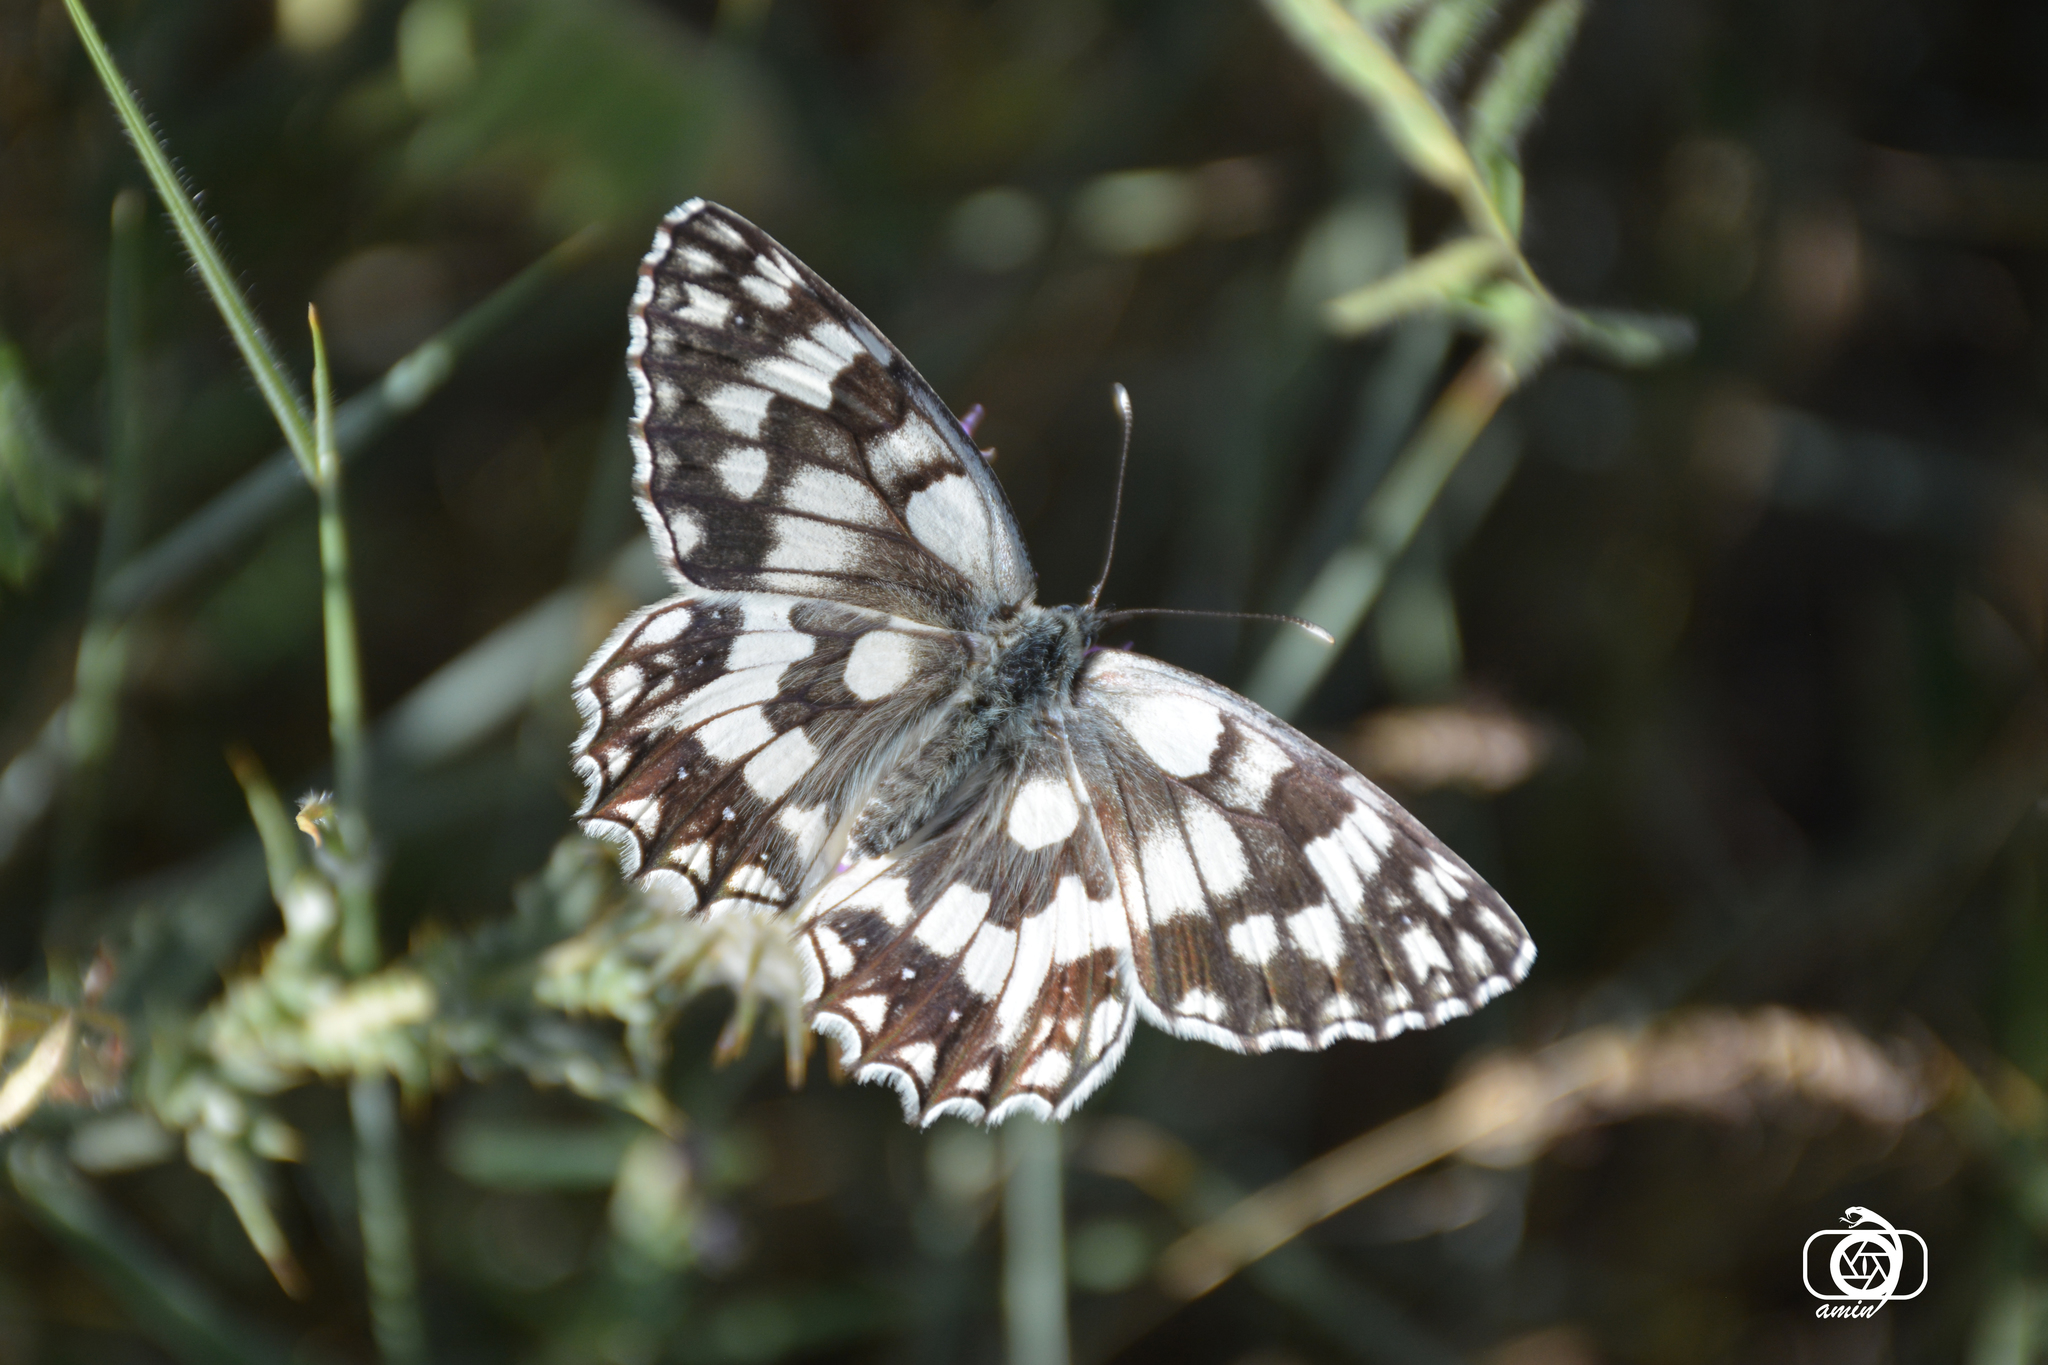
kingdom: Animalia
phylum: Arthropoda
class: Insecta
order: Lepidoptera
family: Nymphalidae
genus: Melanargia
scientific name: Melanargia japygia
